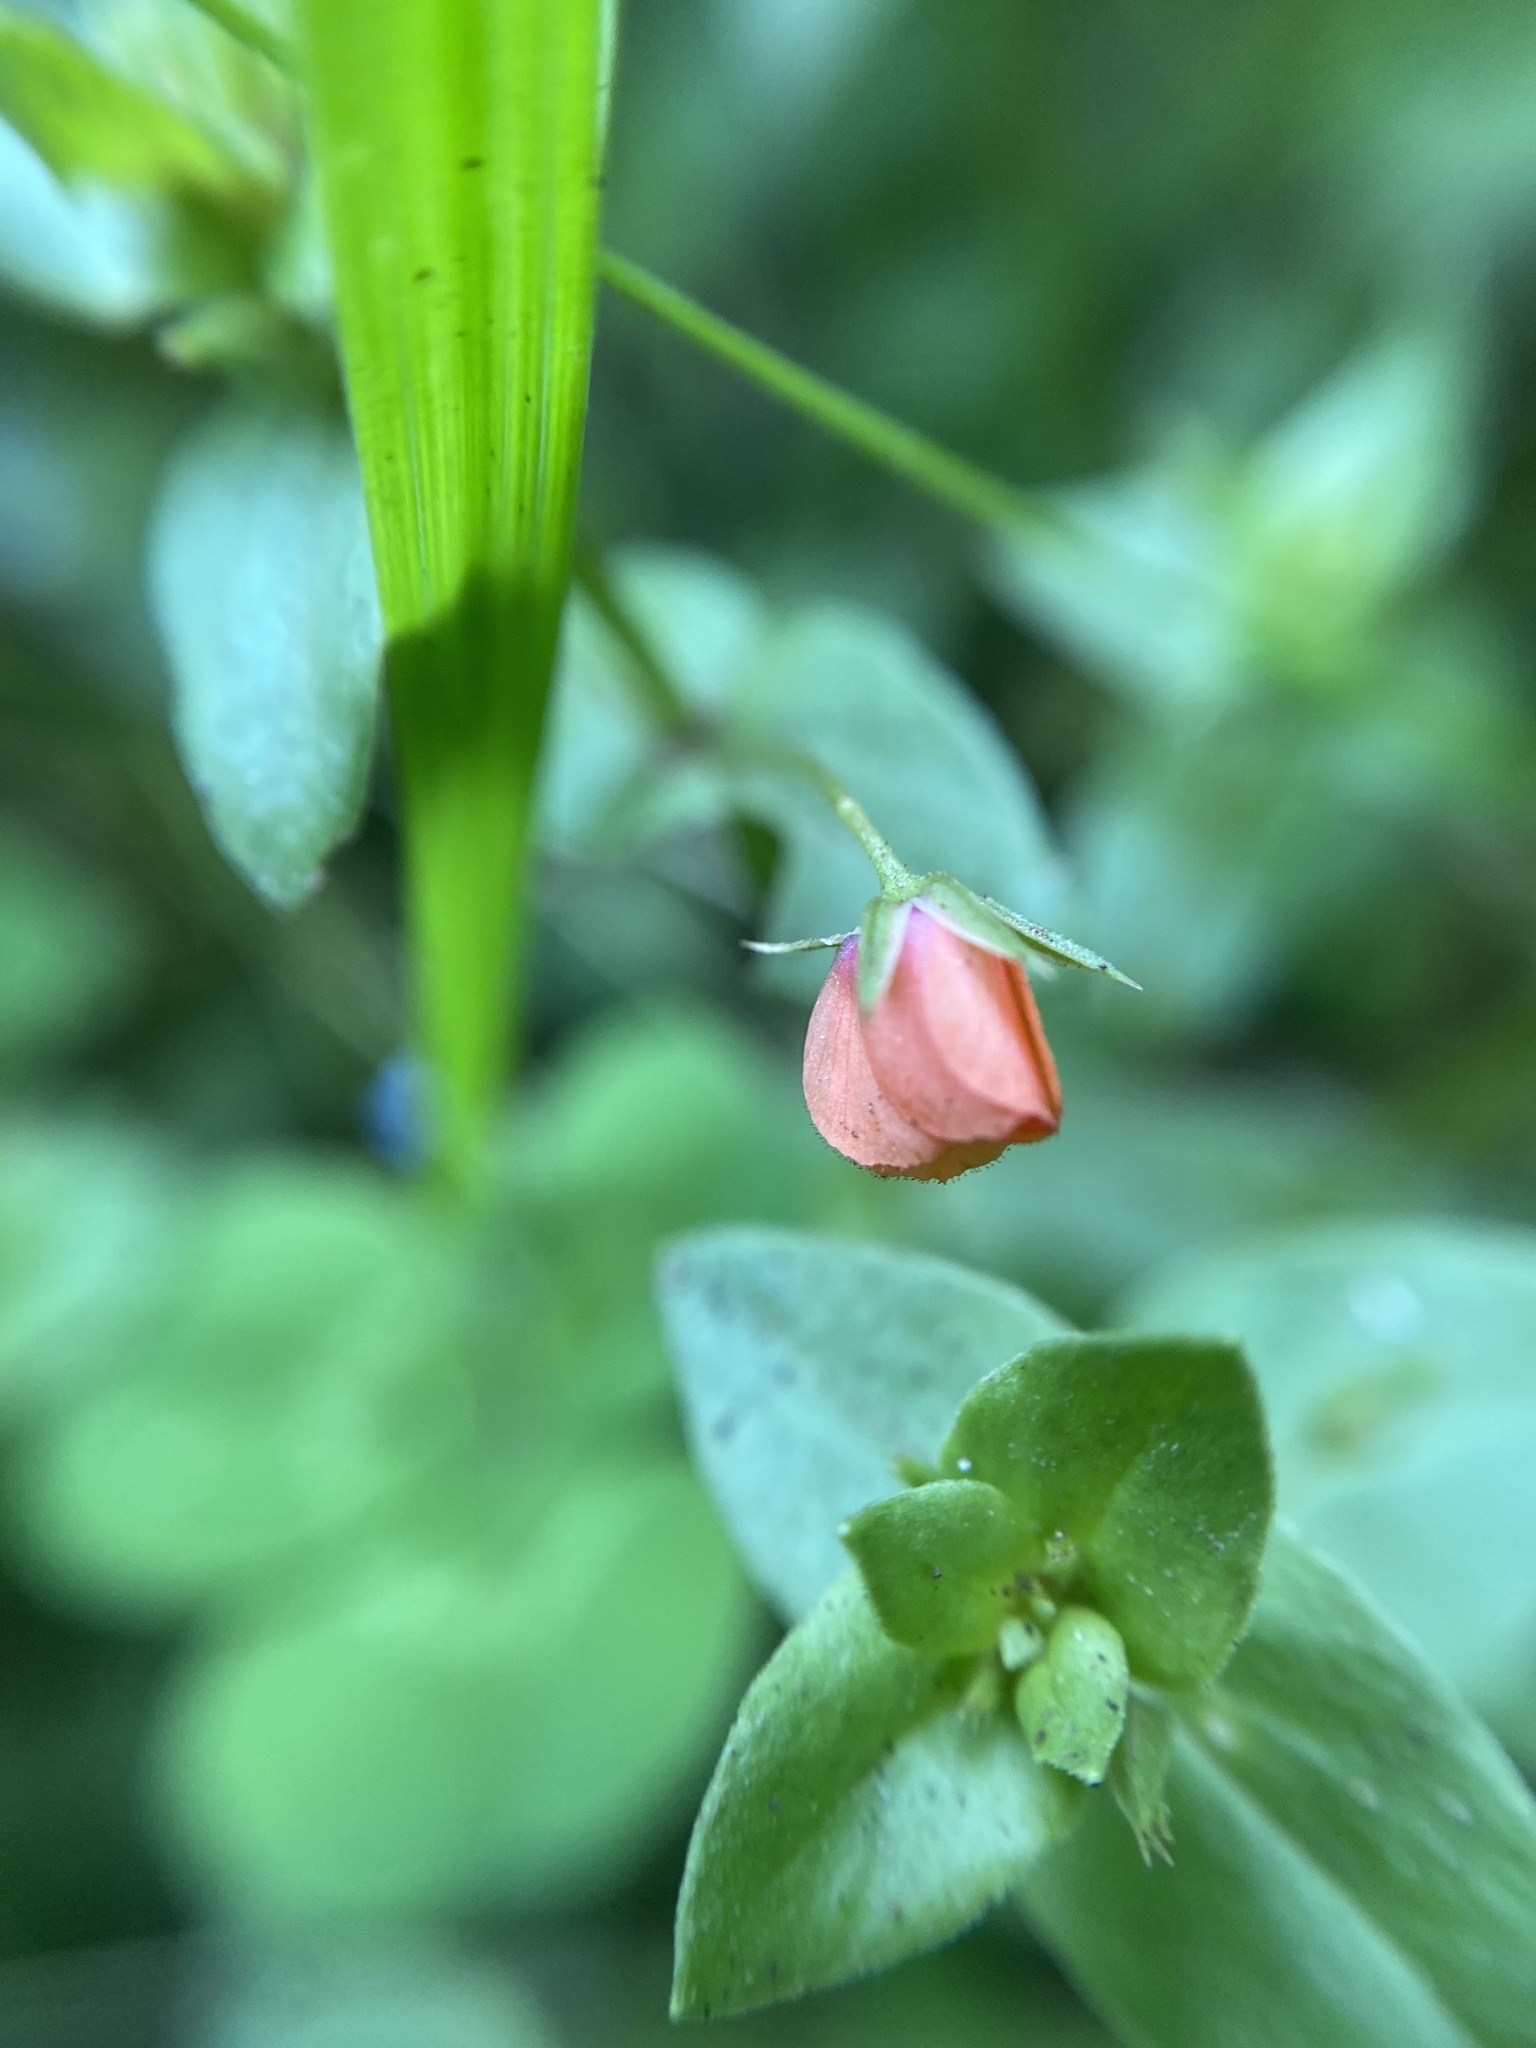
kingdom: Plantae
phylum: Tracheophyta
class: Magnoliopsida
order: Ericales
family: Primulaceae
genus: Lysimachia
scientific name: Lysimachia arvensis
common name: Scarlet pimpernel
